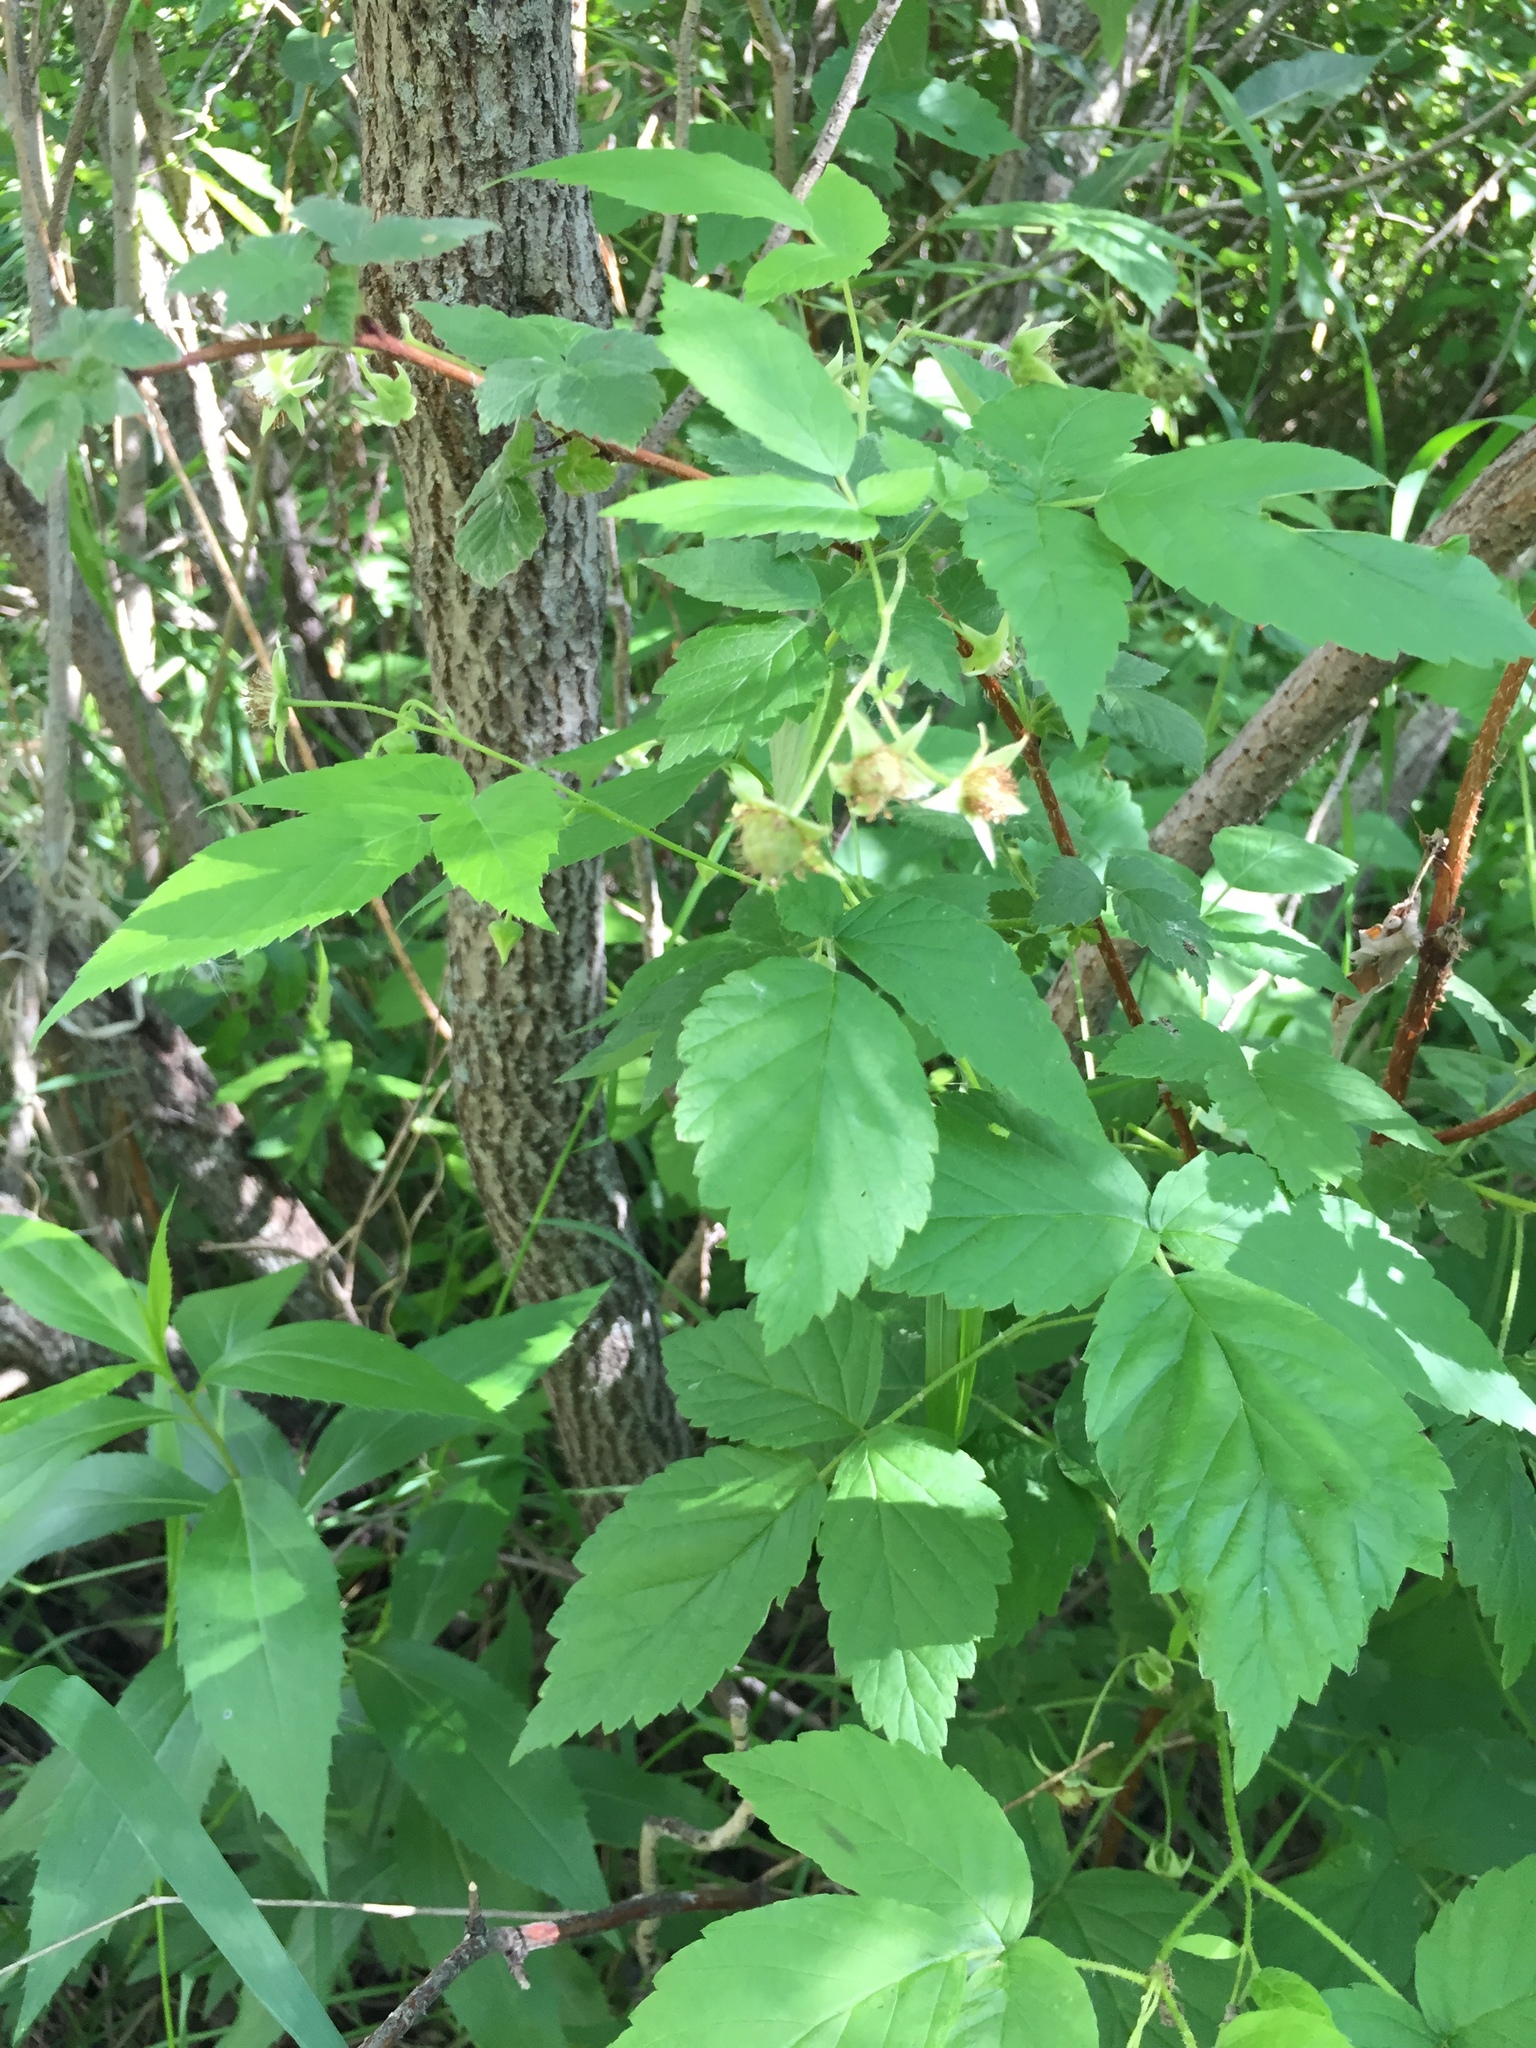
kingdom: Plantae
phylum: Tracheophyta
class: Magnoliopsida
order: Rosales
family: Rosaceae
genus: Rubus
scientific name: Rubus idaeus
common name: Raspberry
